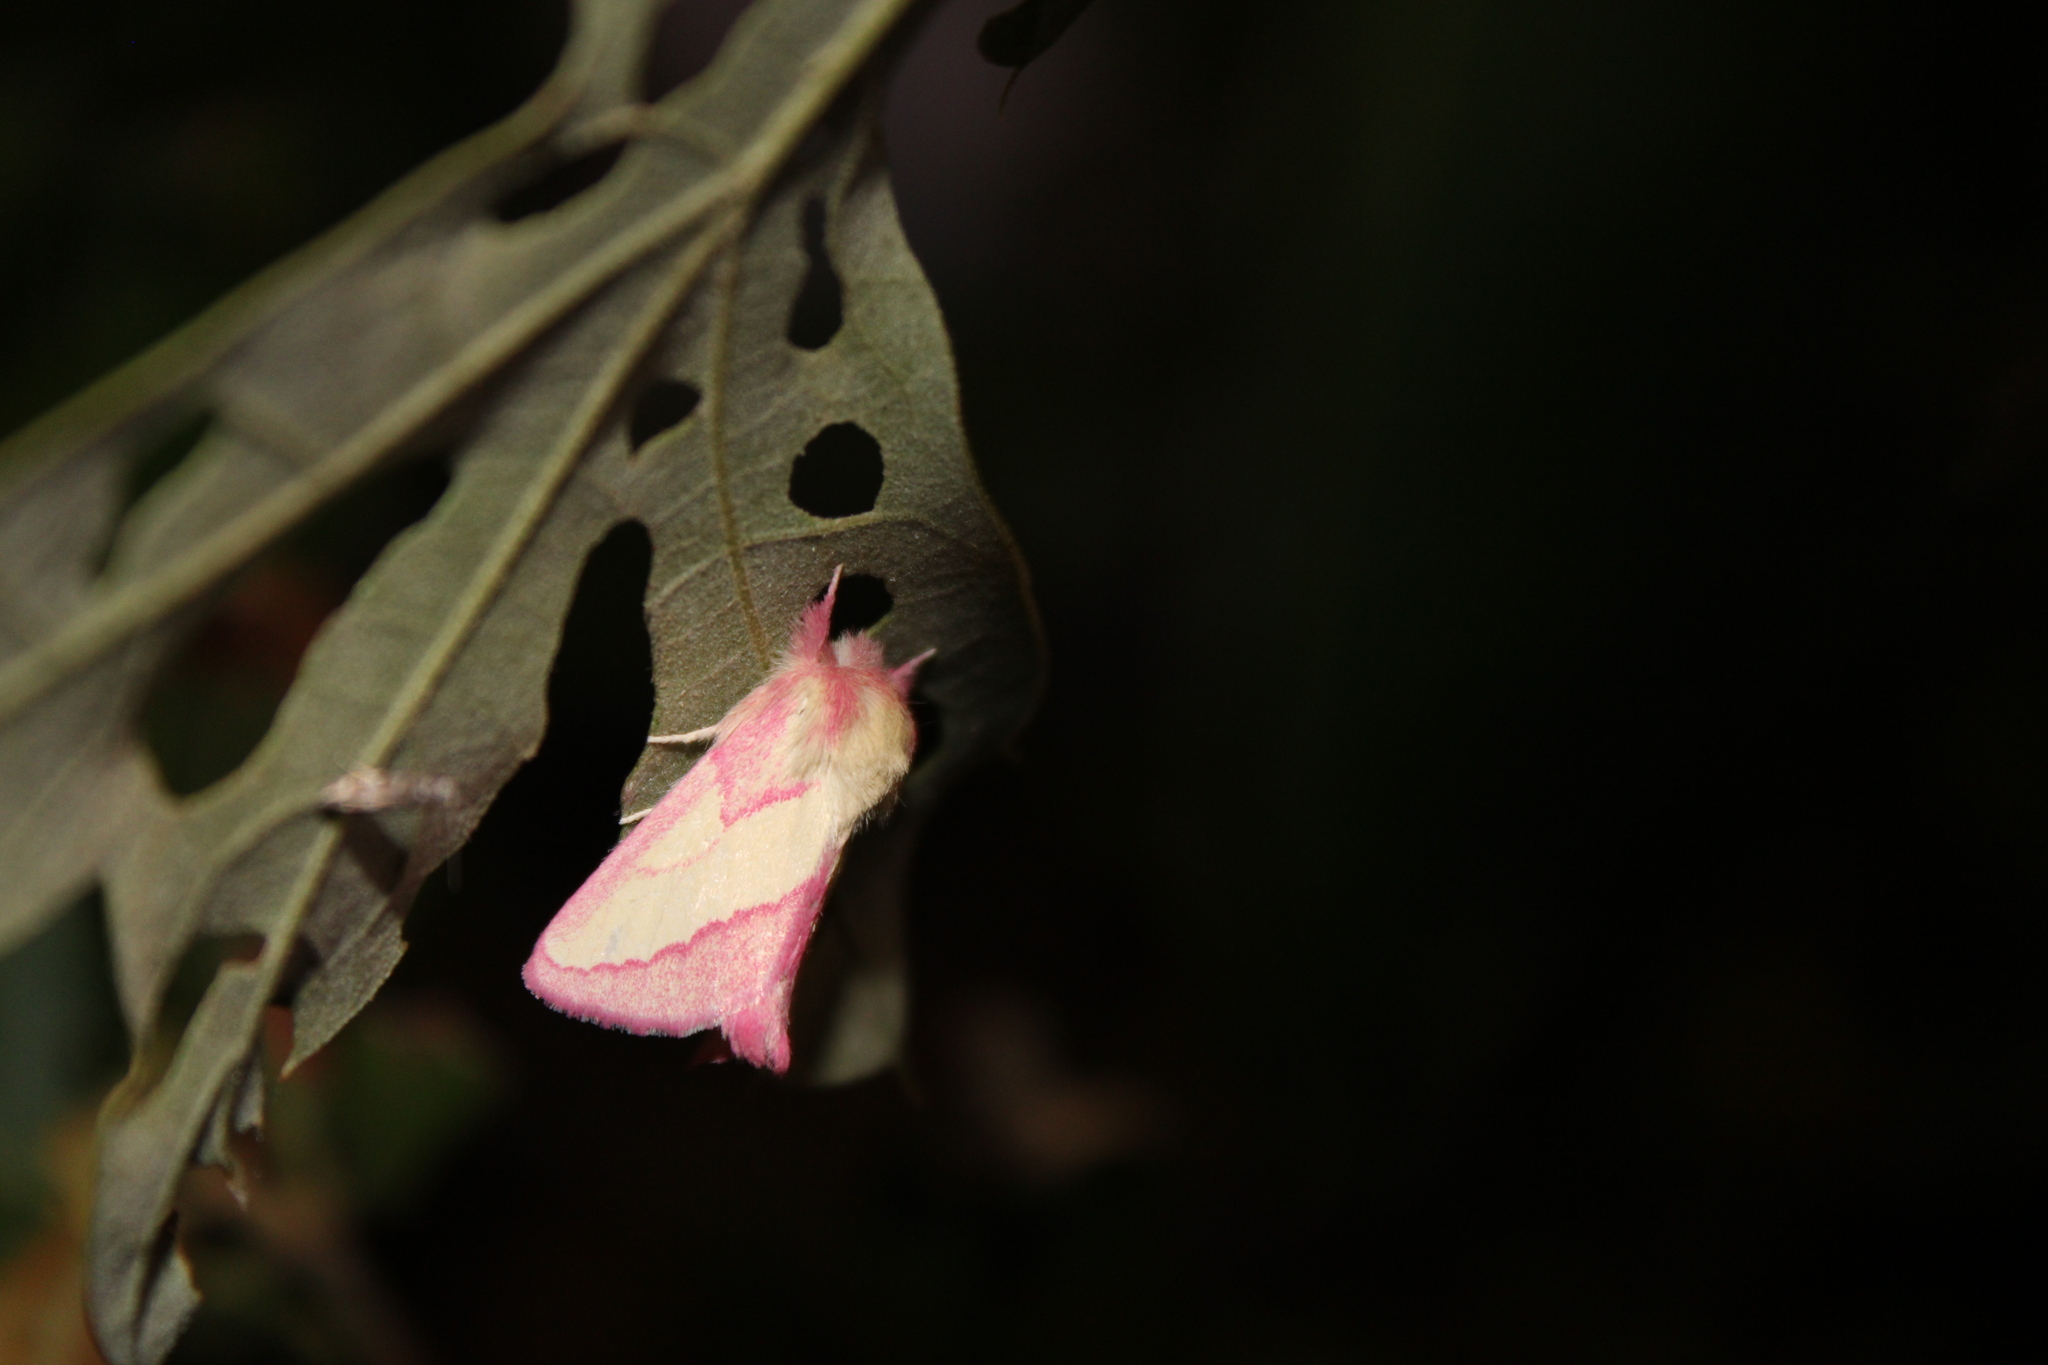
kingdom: Animalia
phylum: Arthropoda
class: Insecta
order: Lepidoptera
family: Notodontidae
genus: Hyparpax
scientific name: Hyparpax aurora
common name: Pink prominent
